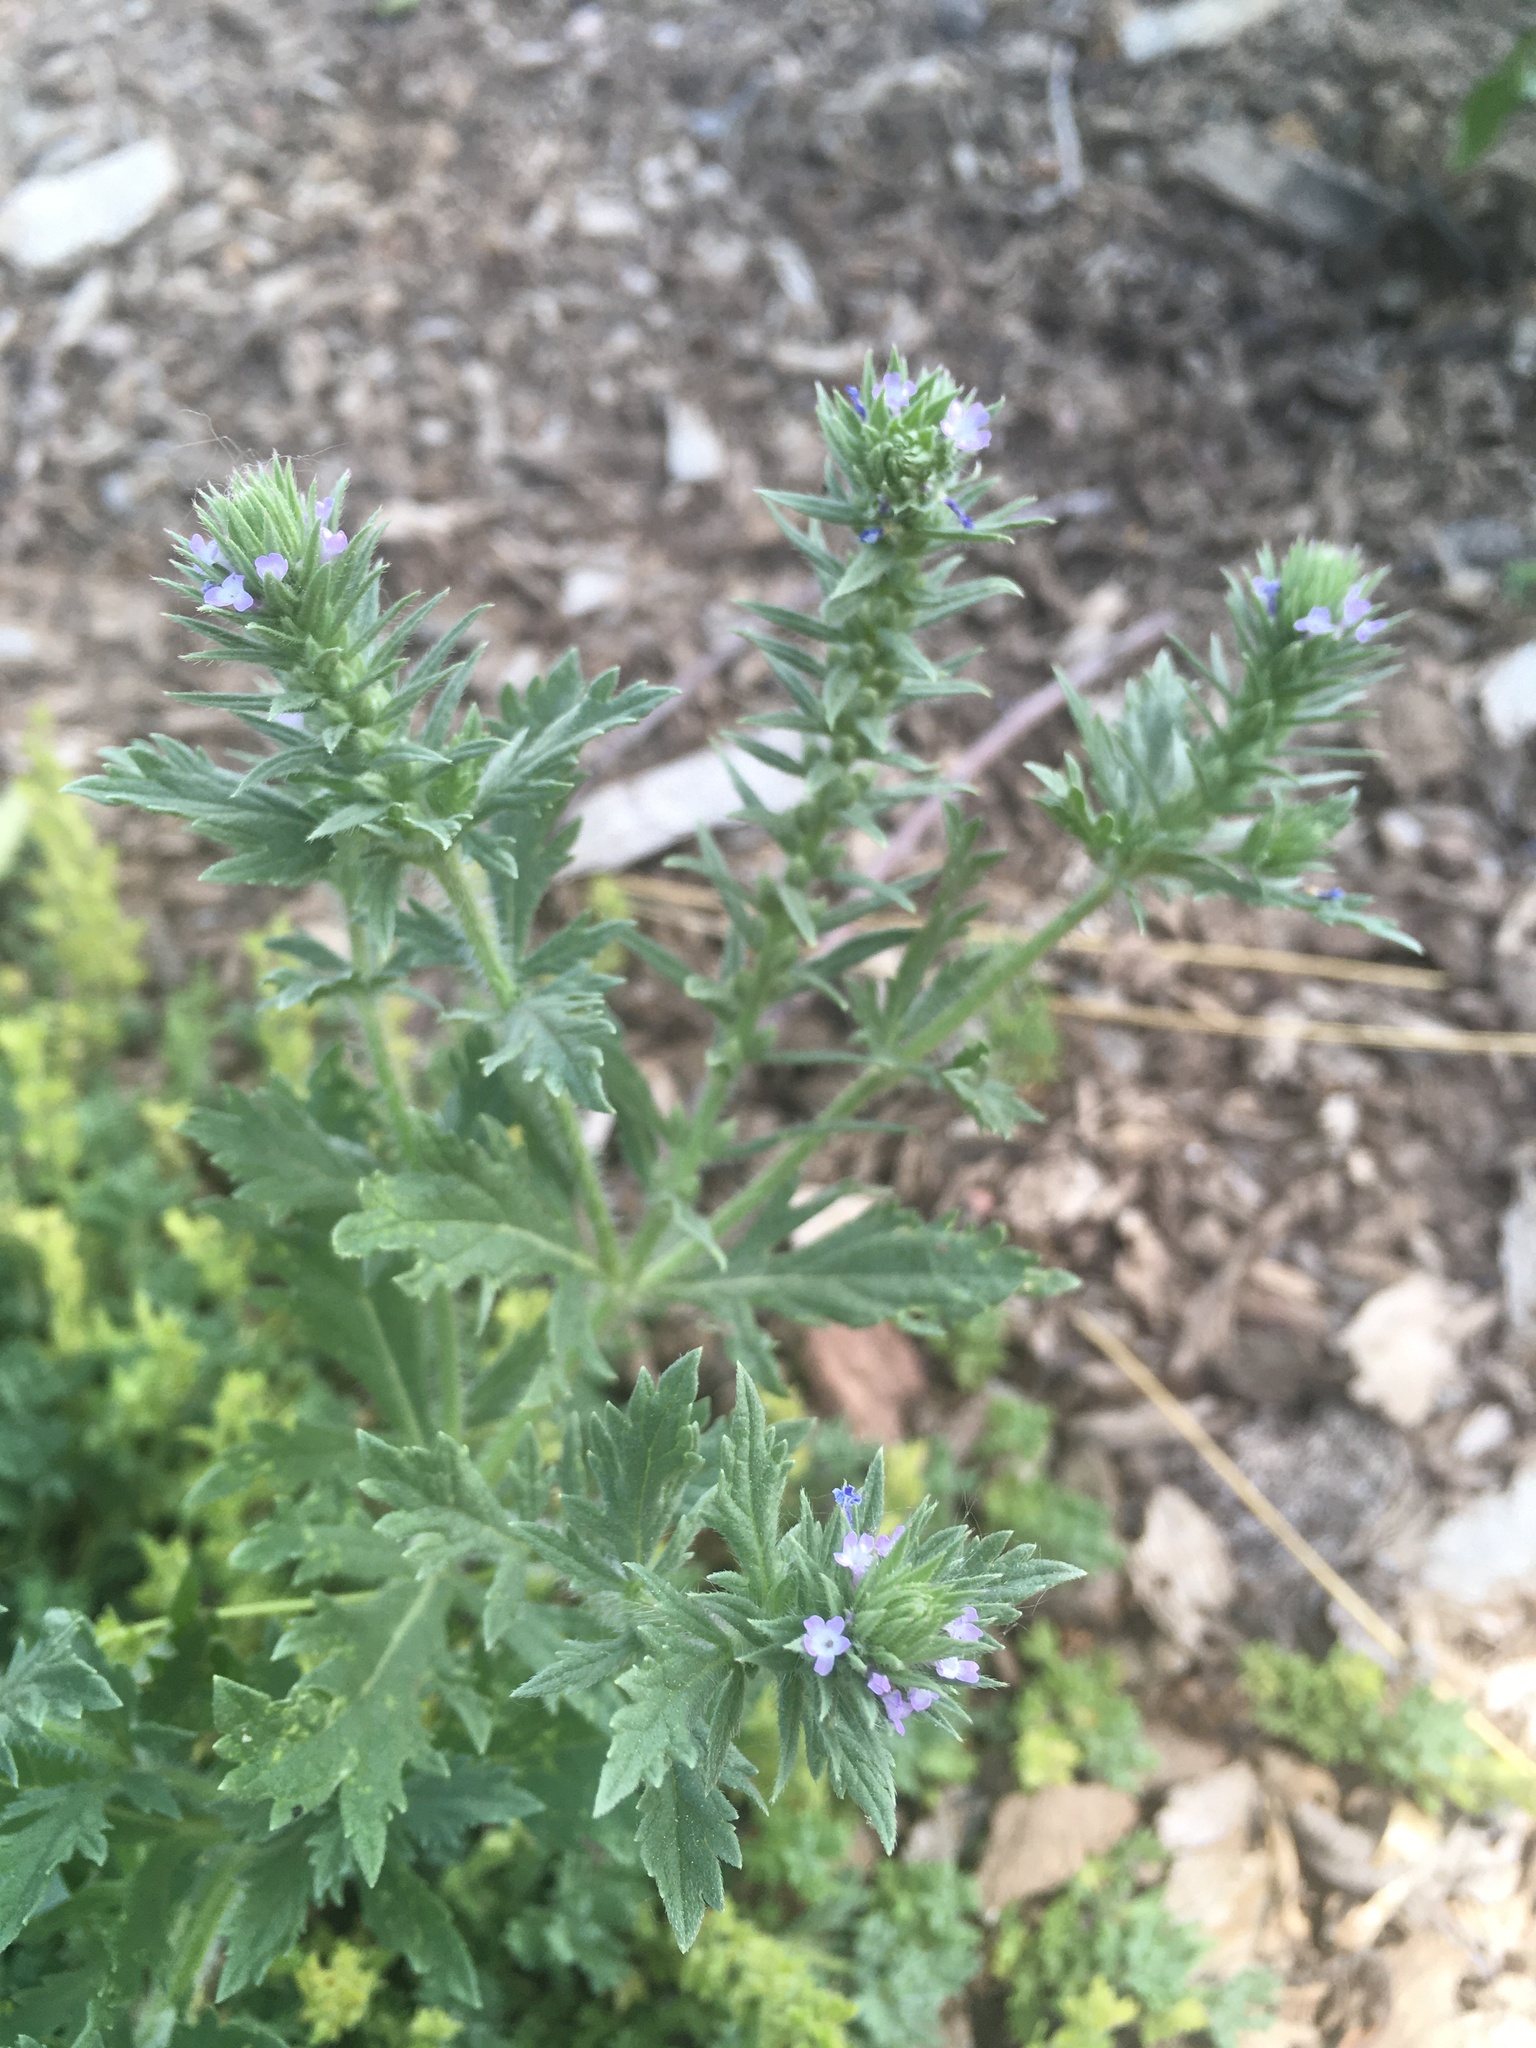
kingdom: Plantae
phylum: Tracheophyta
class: Magnoliopsida
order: Lamiales
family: Verbenaceae
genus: Verbena
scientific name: Verbena bracteata
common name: Bracted vervain
